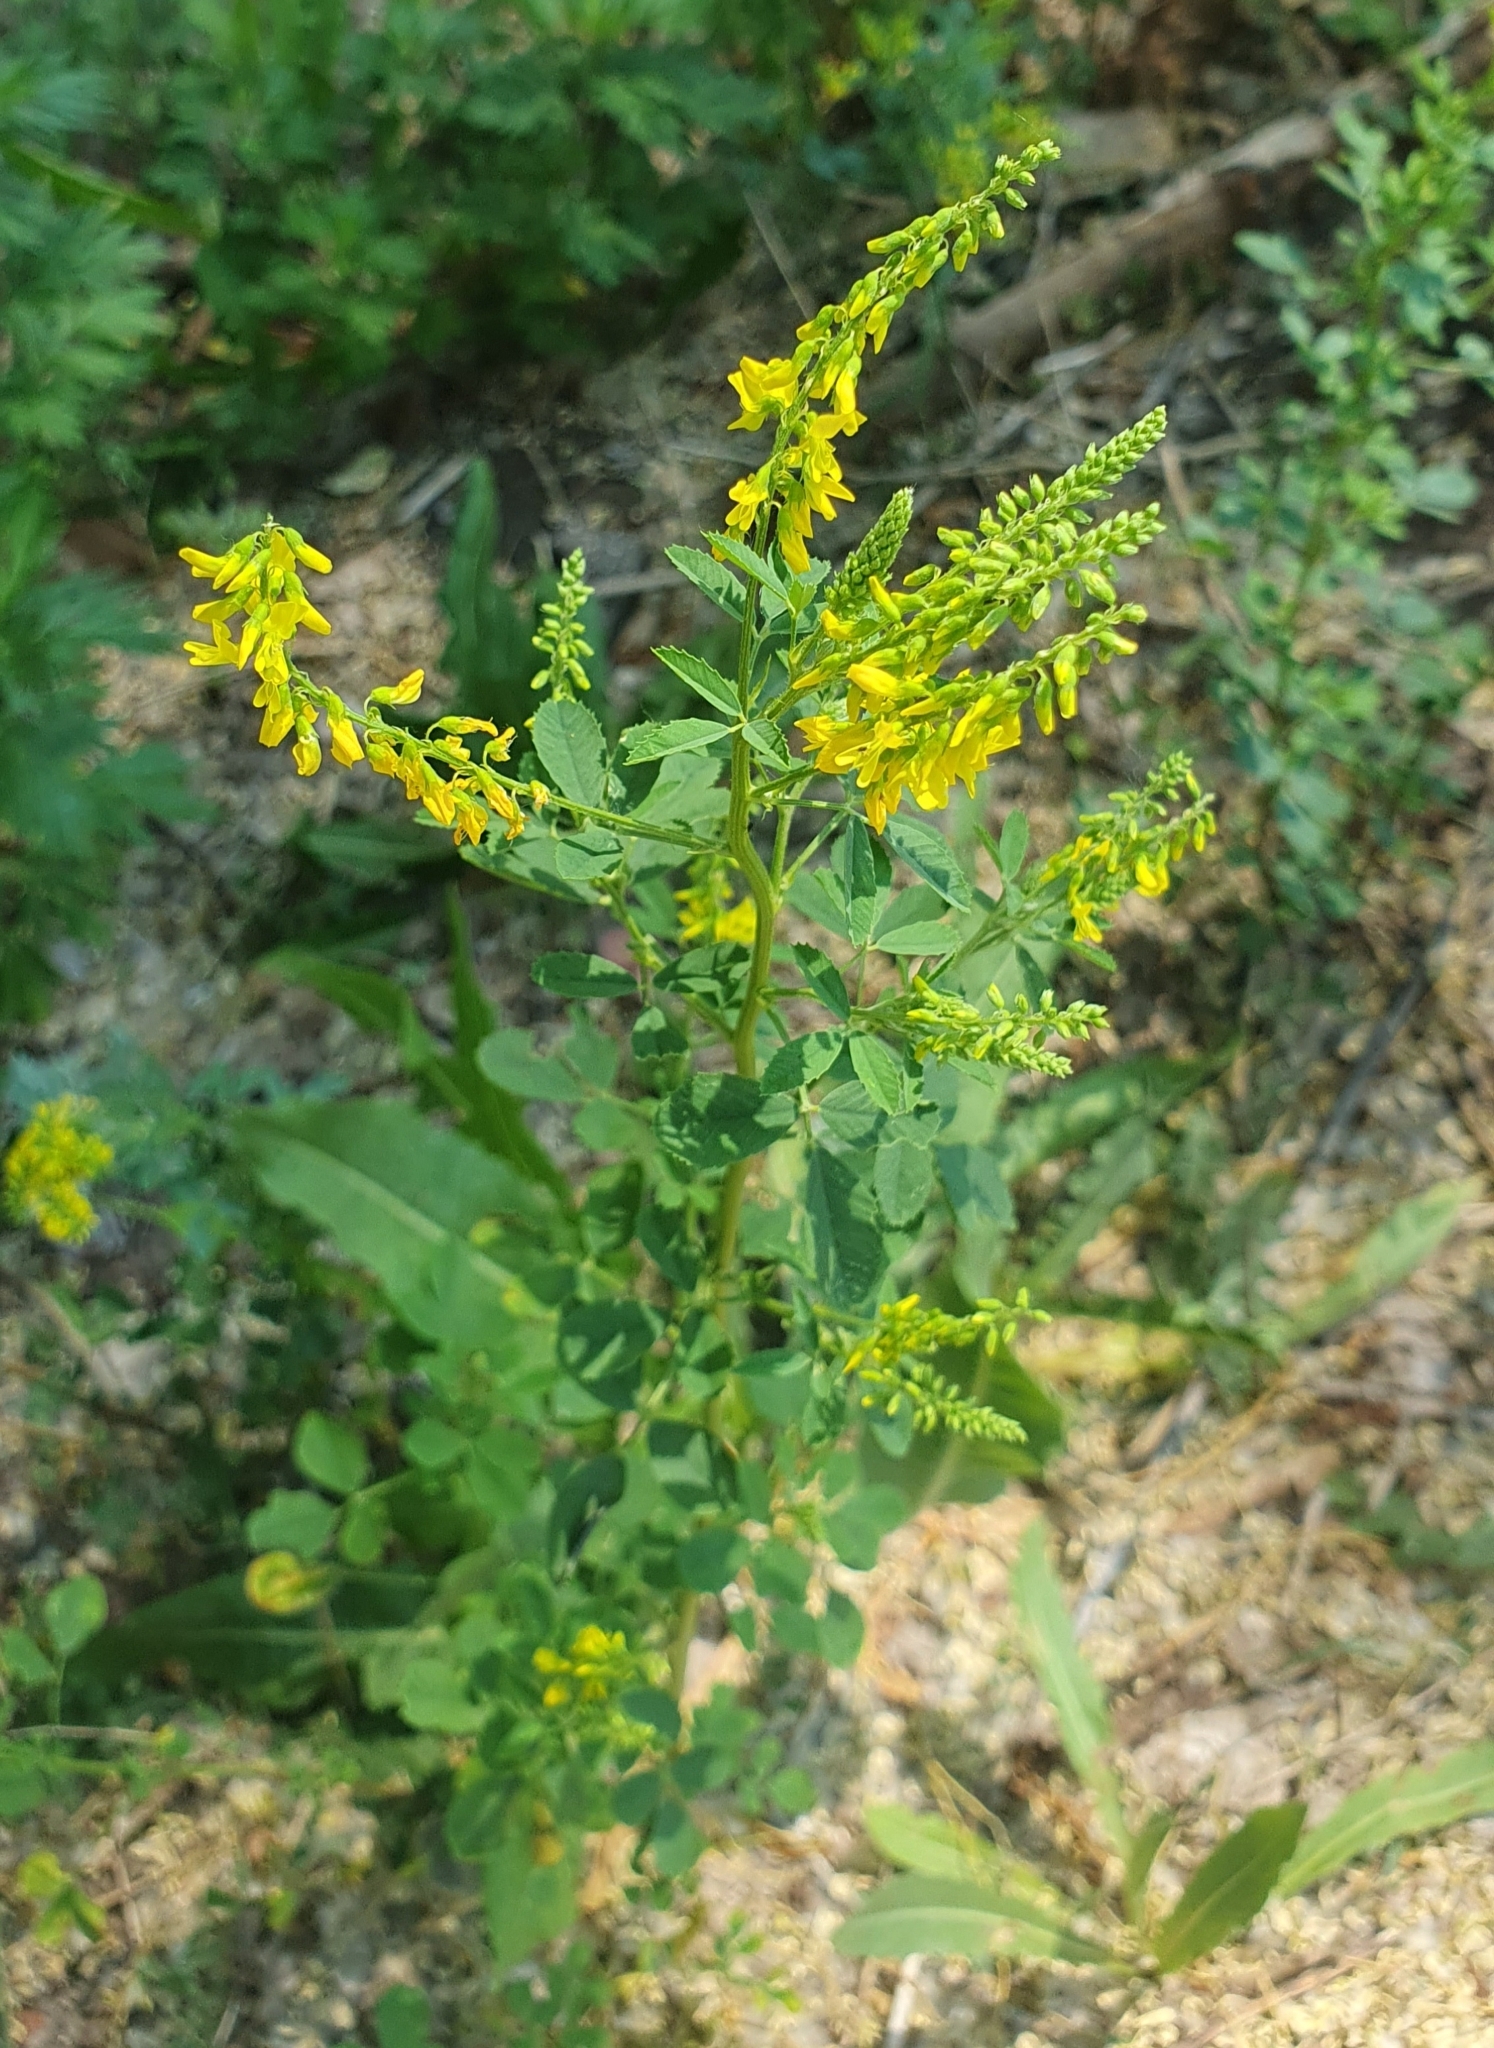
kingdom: Plantae
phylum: Tracheophyta
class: Magnoliopsida
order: Fabales
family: Fabaceae
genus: Melilotus
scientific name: Melilotus officinalis
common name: Sweetclover
